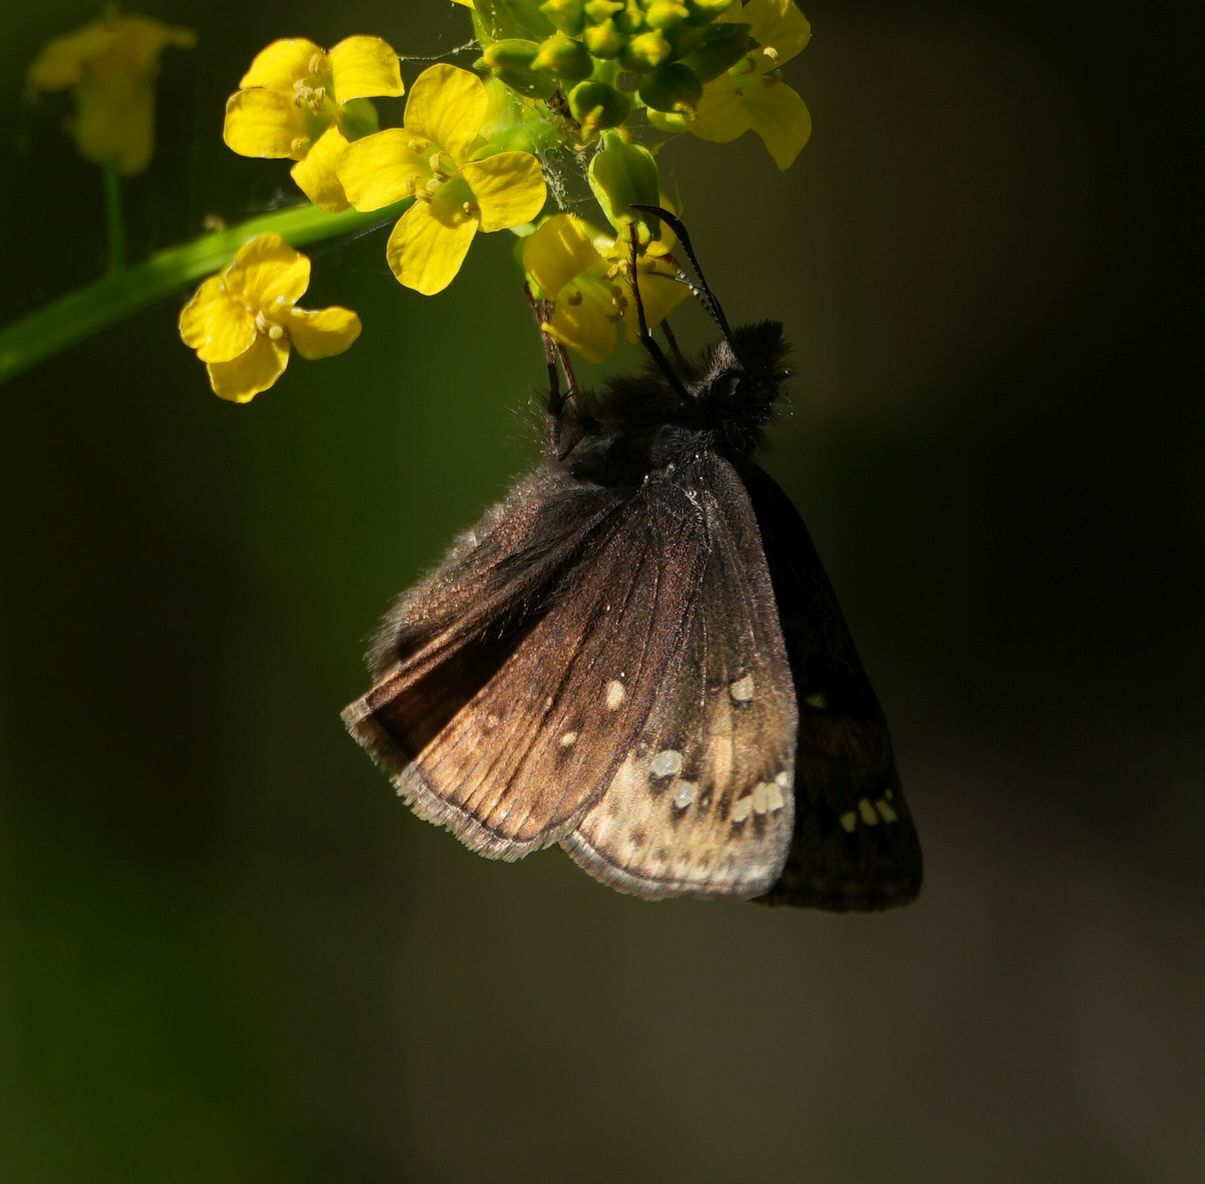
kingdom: Animalia
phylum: Arthropoda
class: Insecta
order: Lepidoptera
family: Hesperiidae
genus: Erynnis
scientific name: Erynnis juvenalis
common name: Juvenal's duskywing
